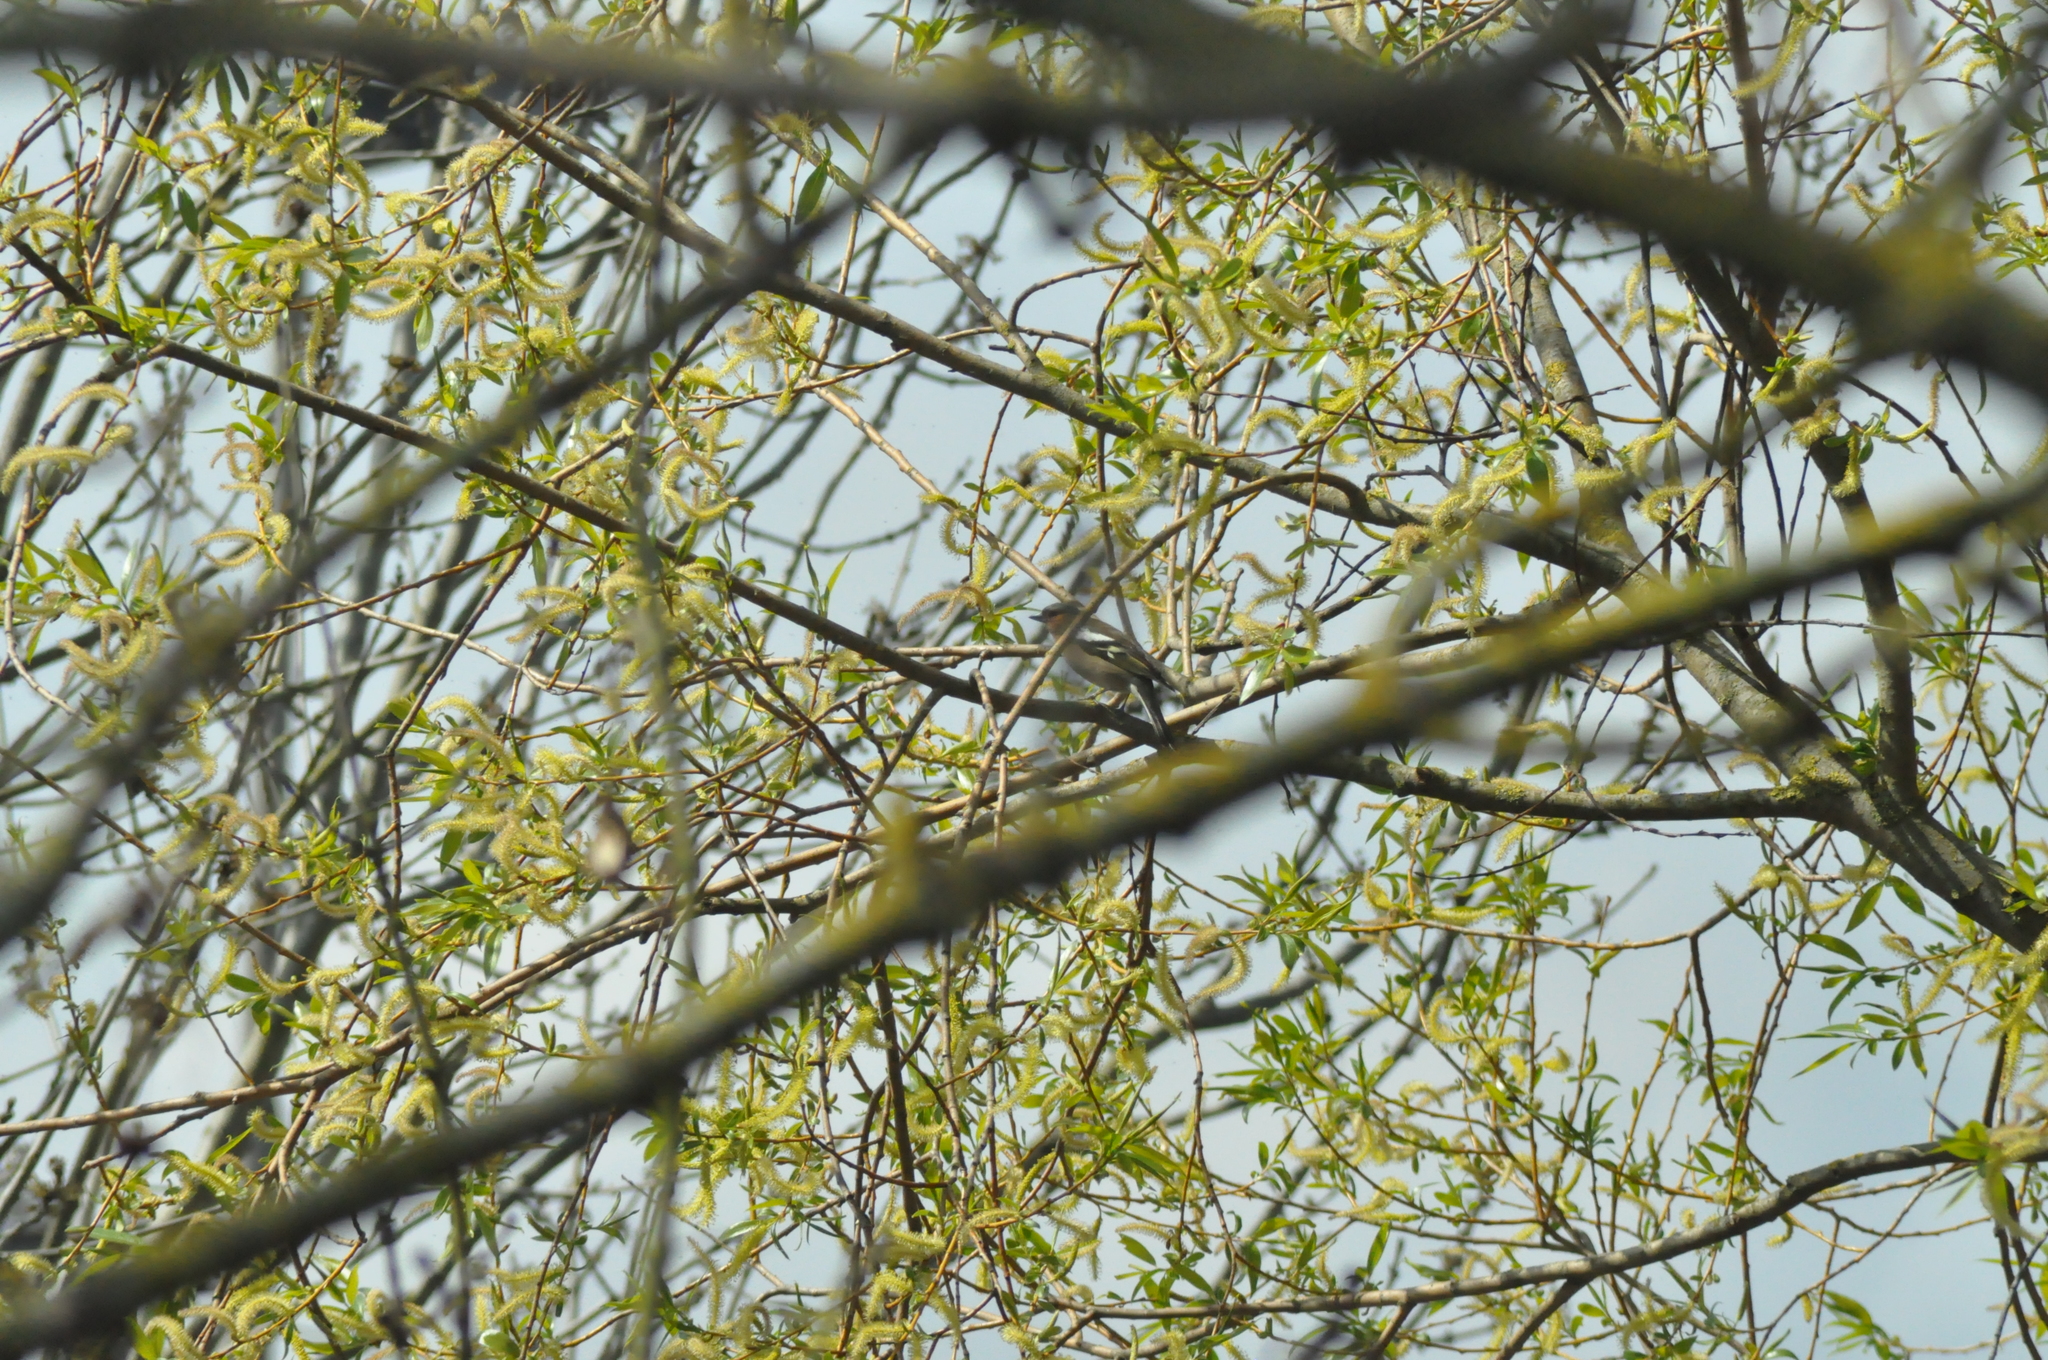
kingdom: Animalia
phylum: Chordata
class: Aves
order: Passeriformes
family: Fringillidae
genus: Fringilla
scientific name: Fringilla coelebs
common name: Common chaffinch
